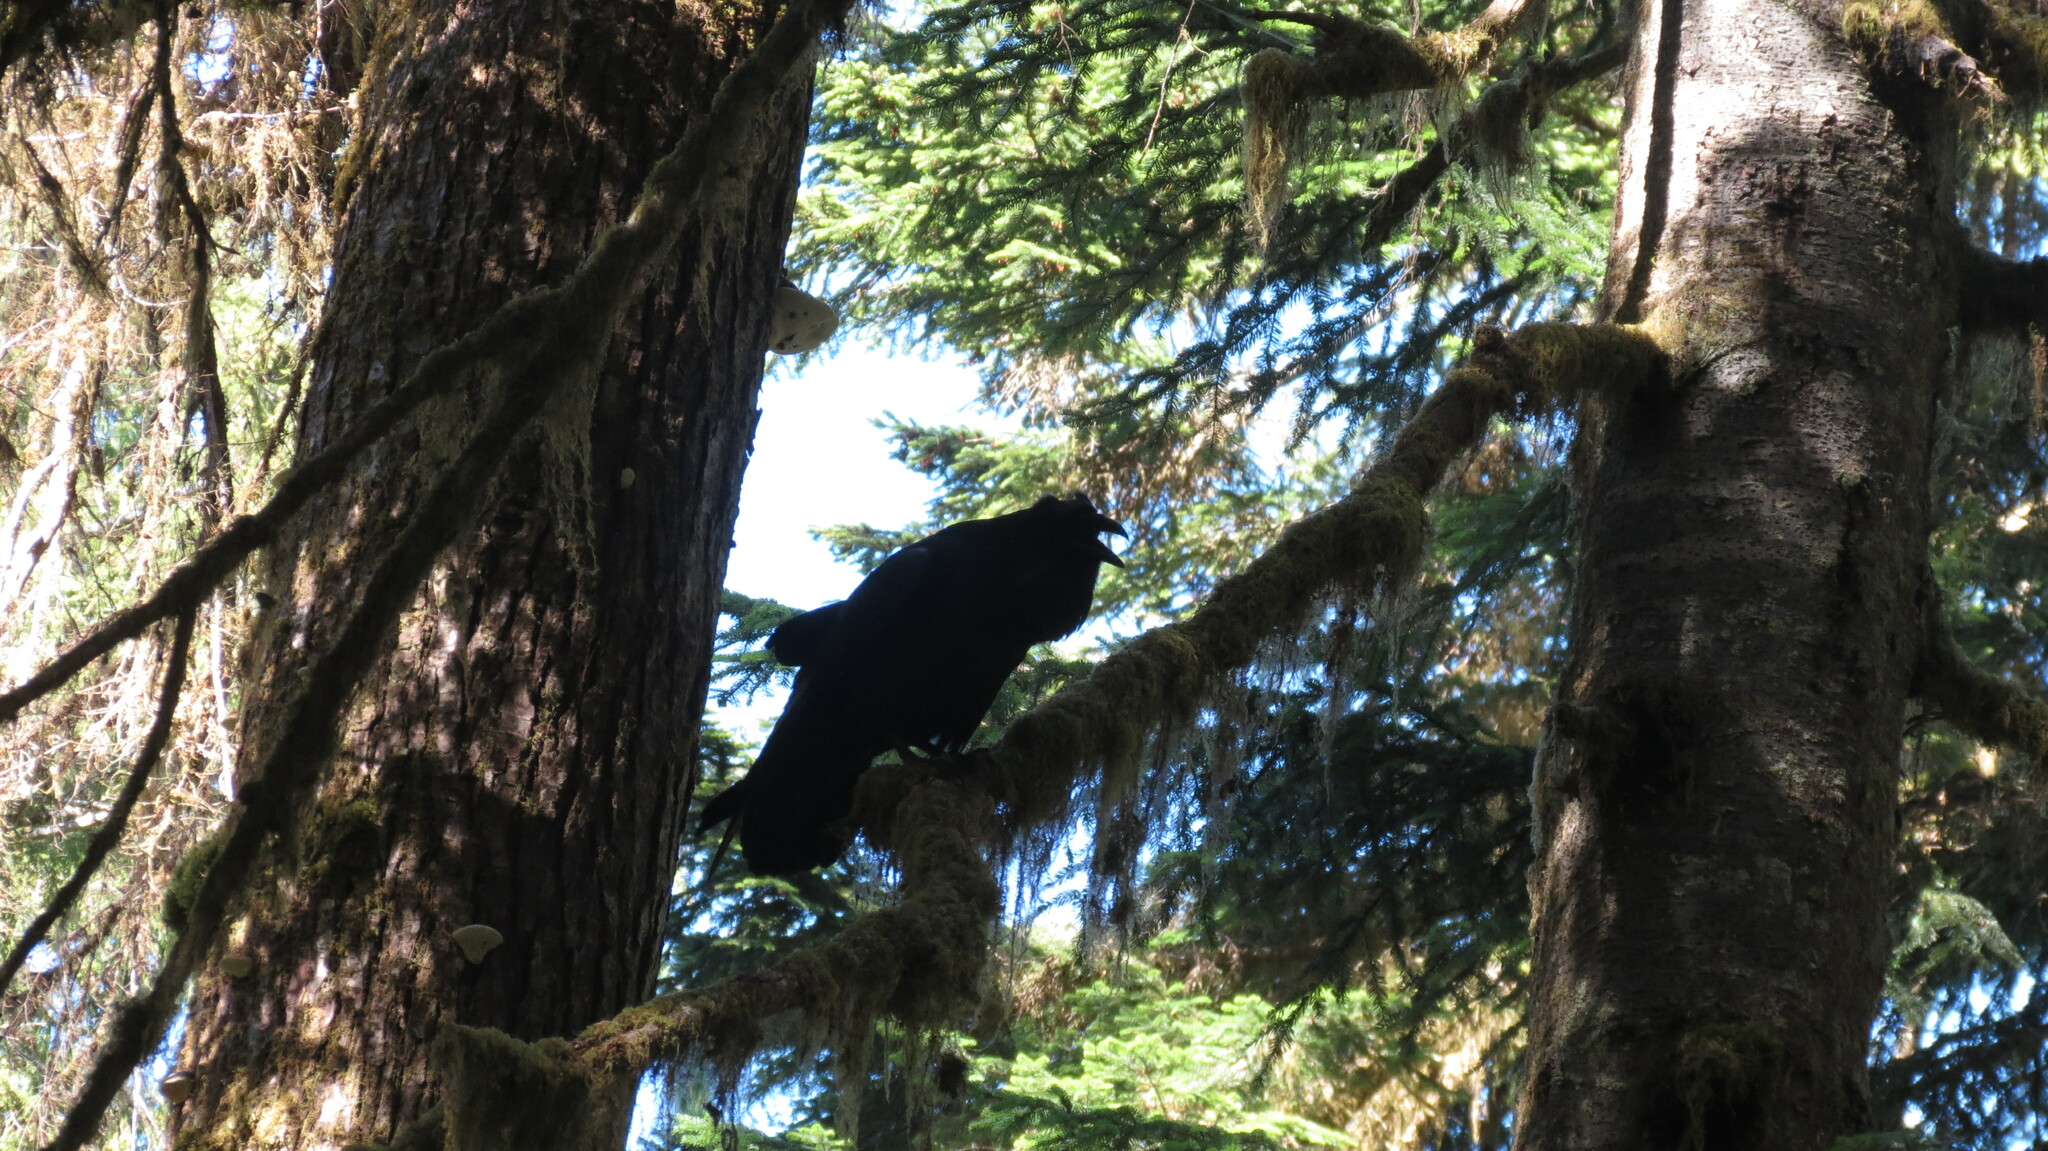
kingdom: Animalia
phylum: Chordata
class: Aves
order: Passeriformes
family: Corvidae
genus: Corvus
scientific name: Corvus corax
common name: Common raven
